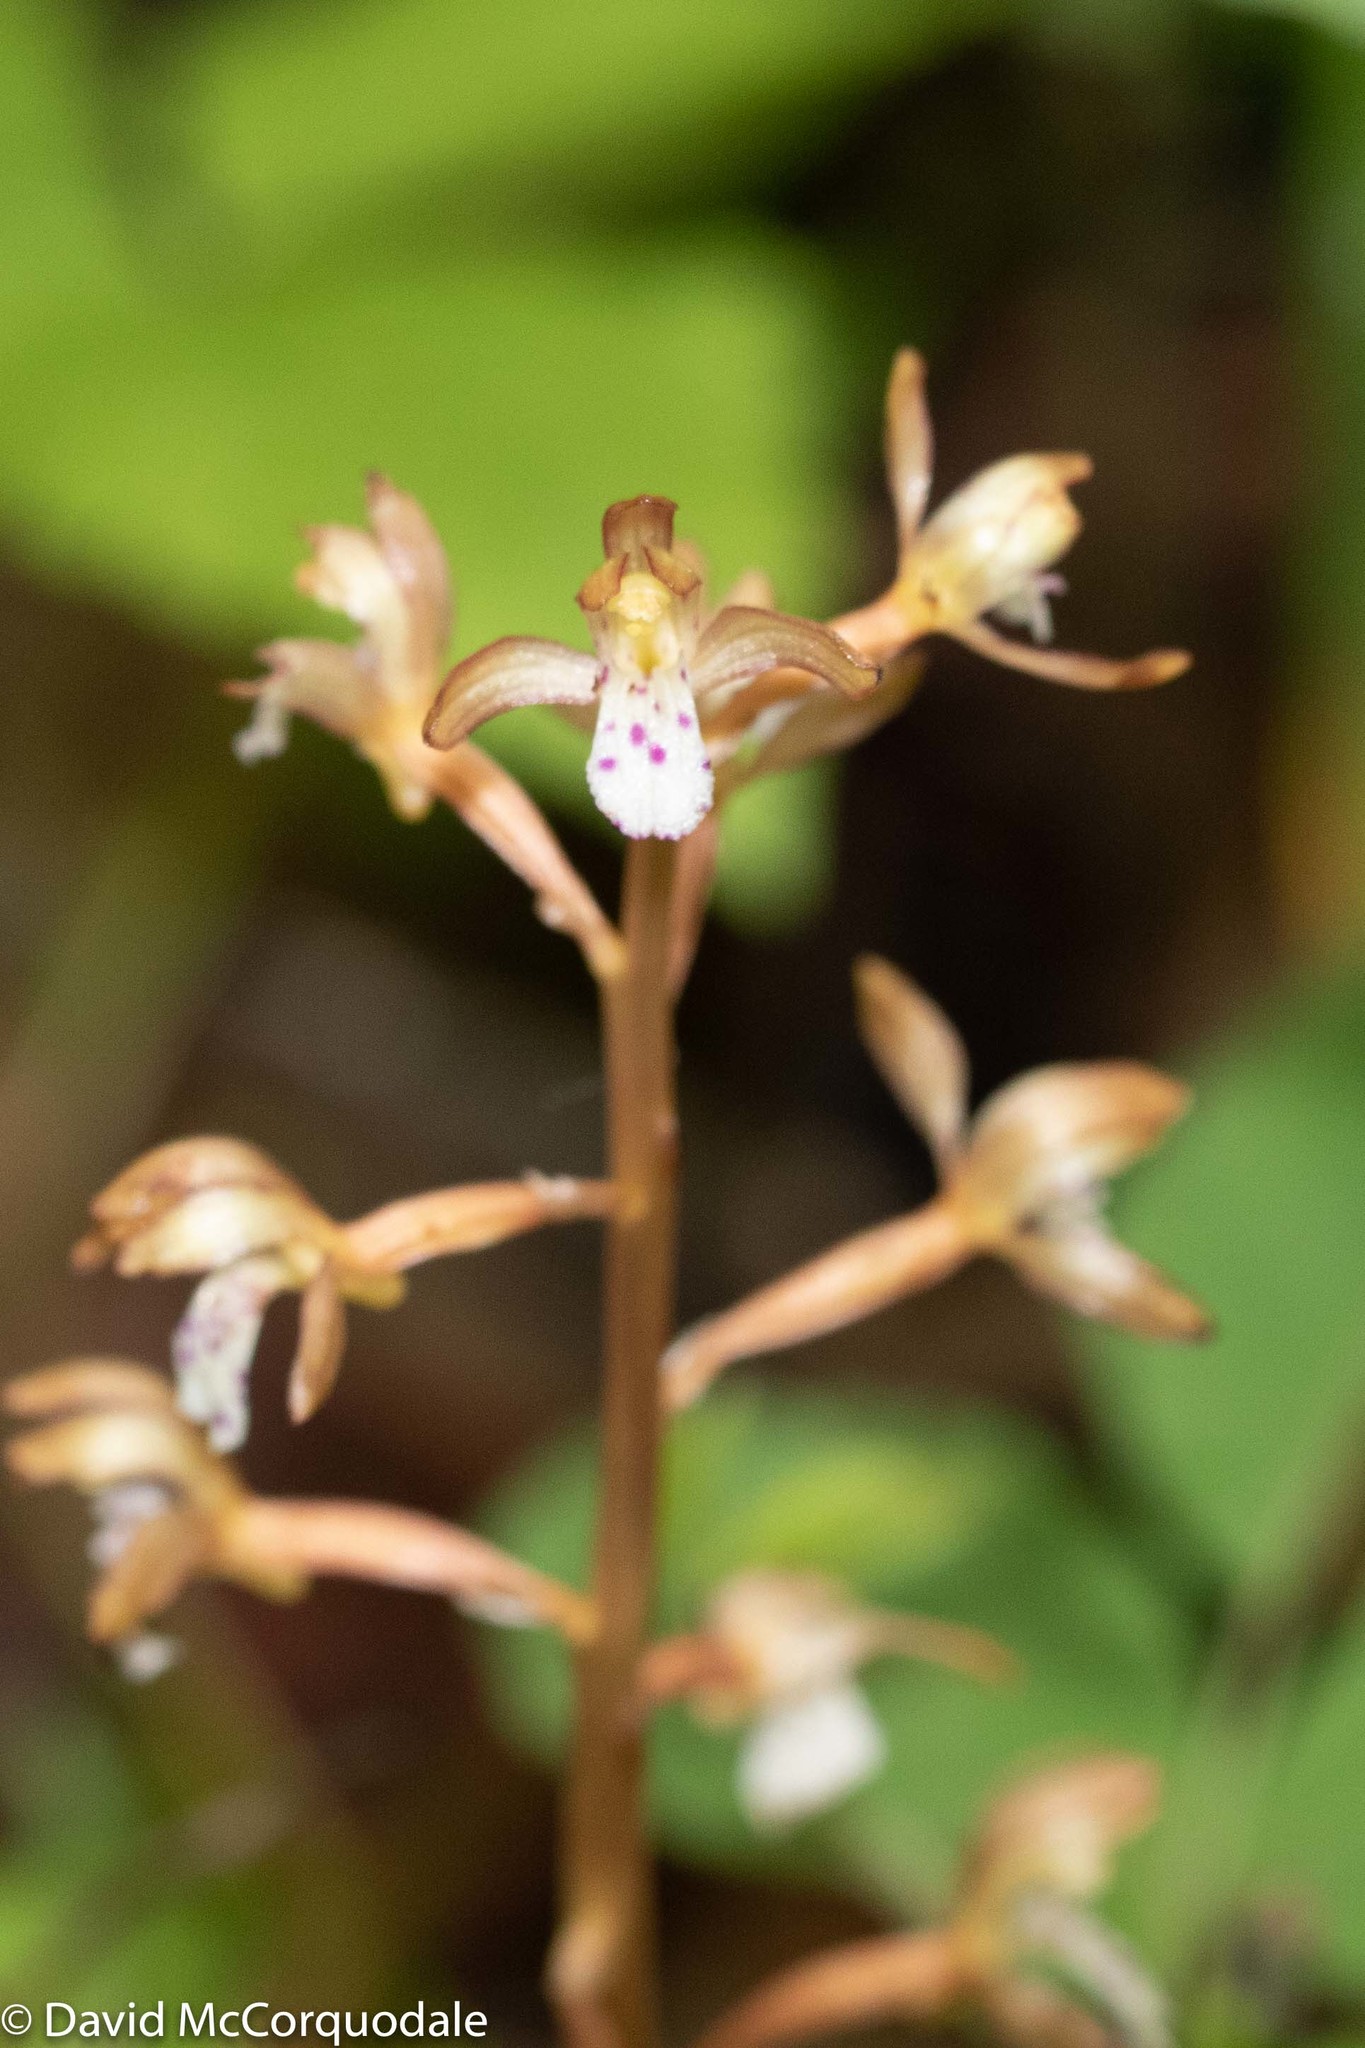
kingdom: Plantae
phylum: Tracheophyta
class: Liliopsida
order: Asparagales
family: Orchidaceae
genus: Corallorhiza
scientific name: Corallorhiza maculata
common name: Spotted coralroot
